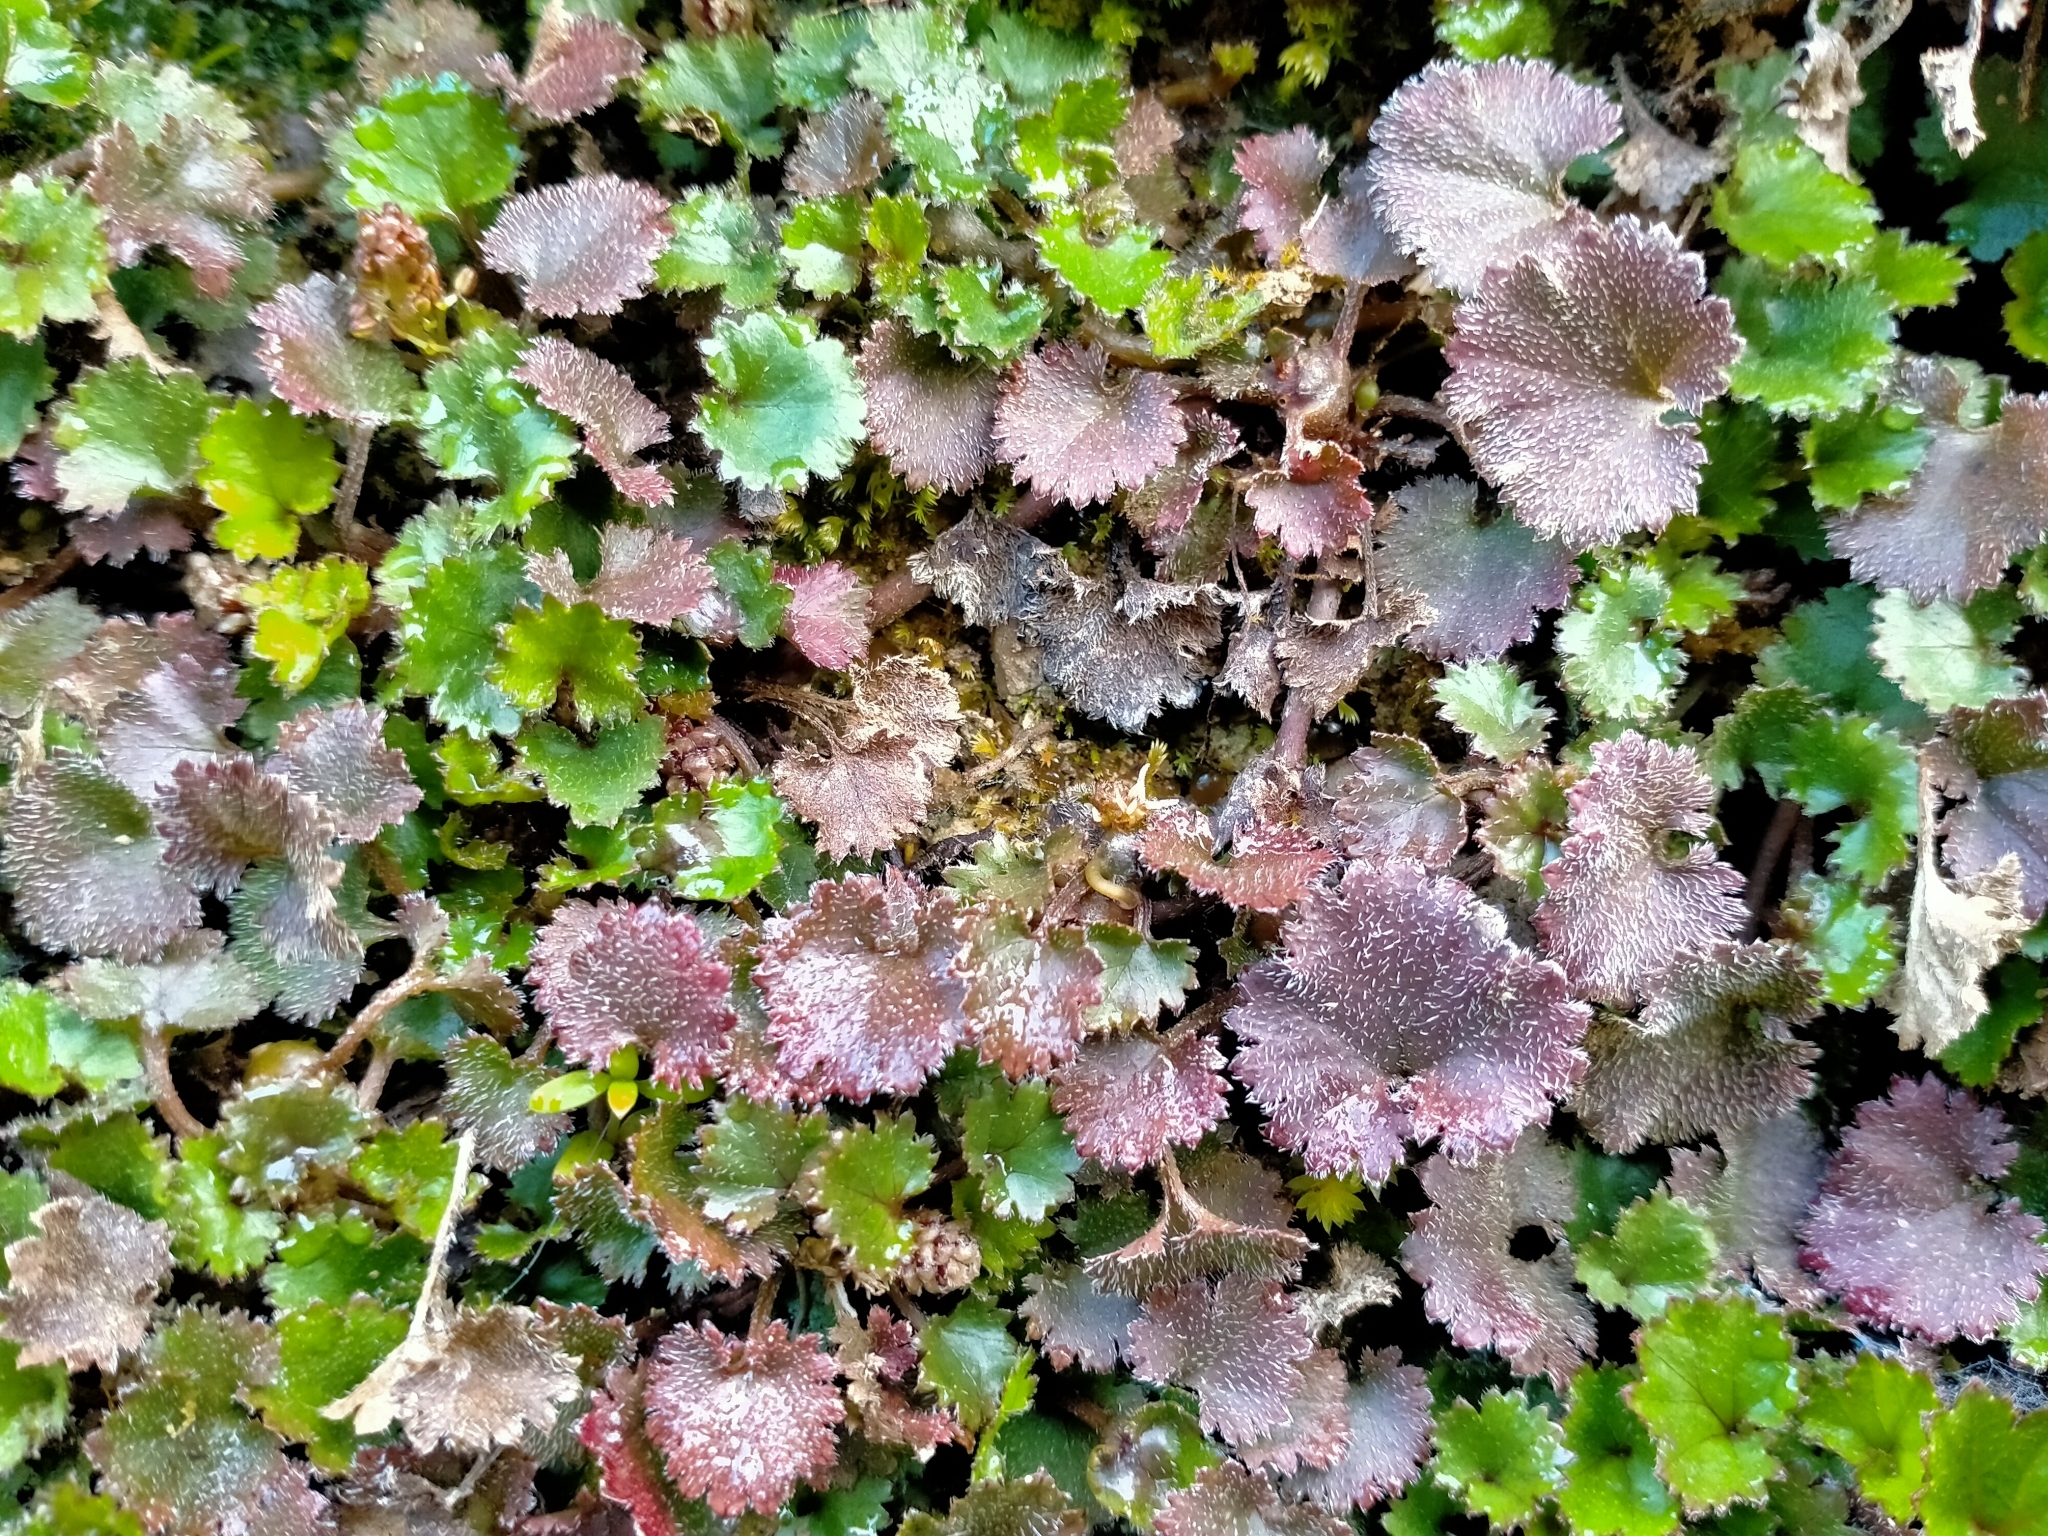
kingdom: Plantae
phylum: Tracheophyta
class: Magnoliopsida
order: Gunnerales
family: Gunneraceae
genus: Gunnera
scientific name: Gunnera monoica
